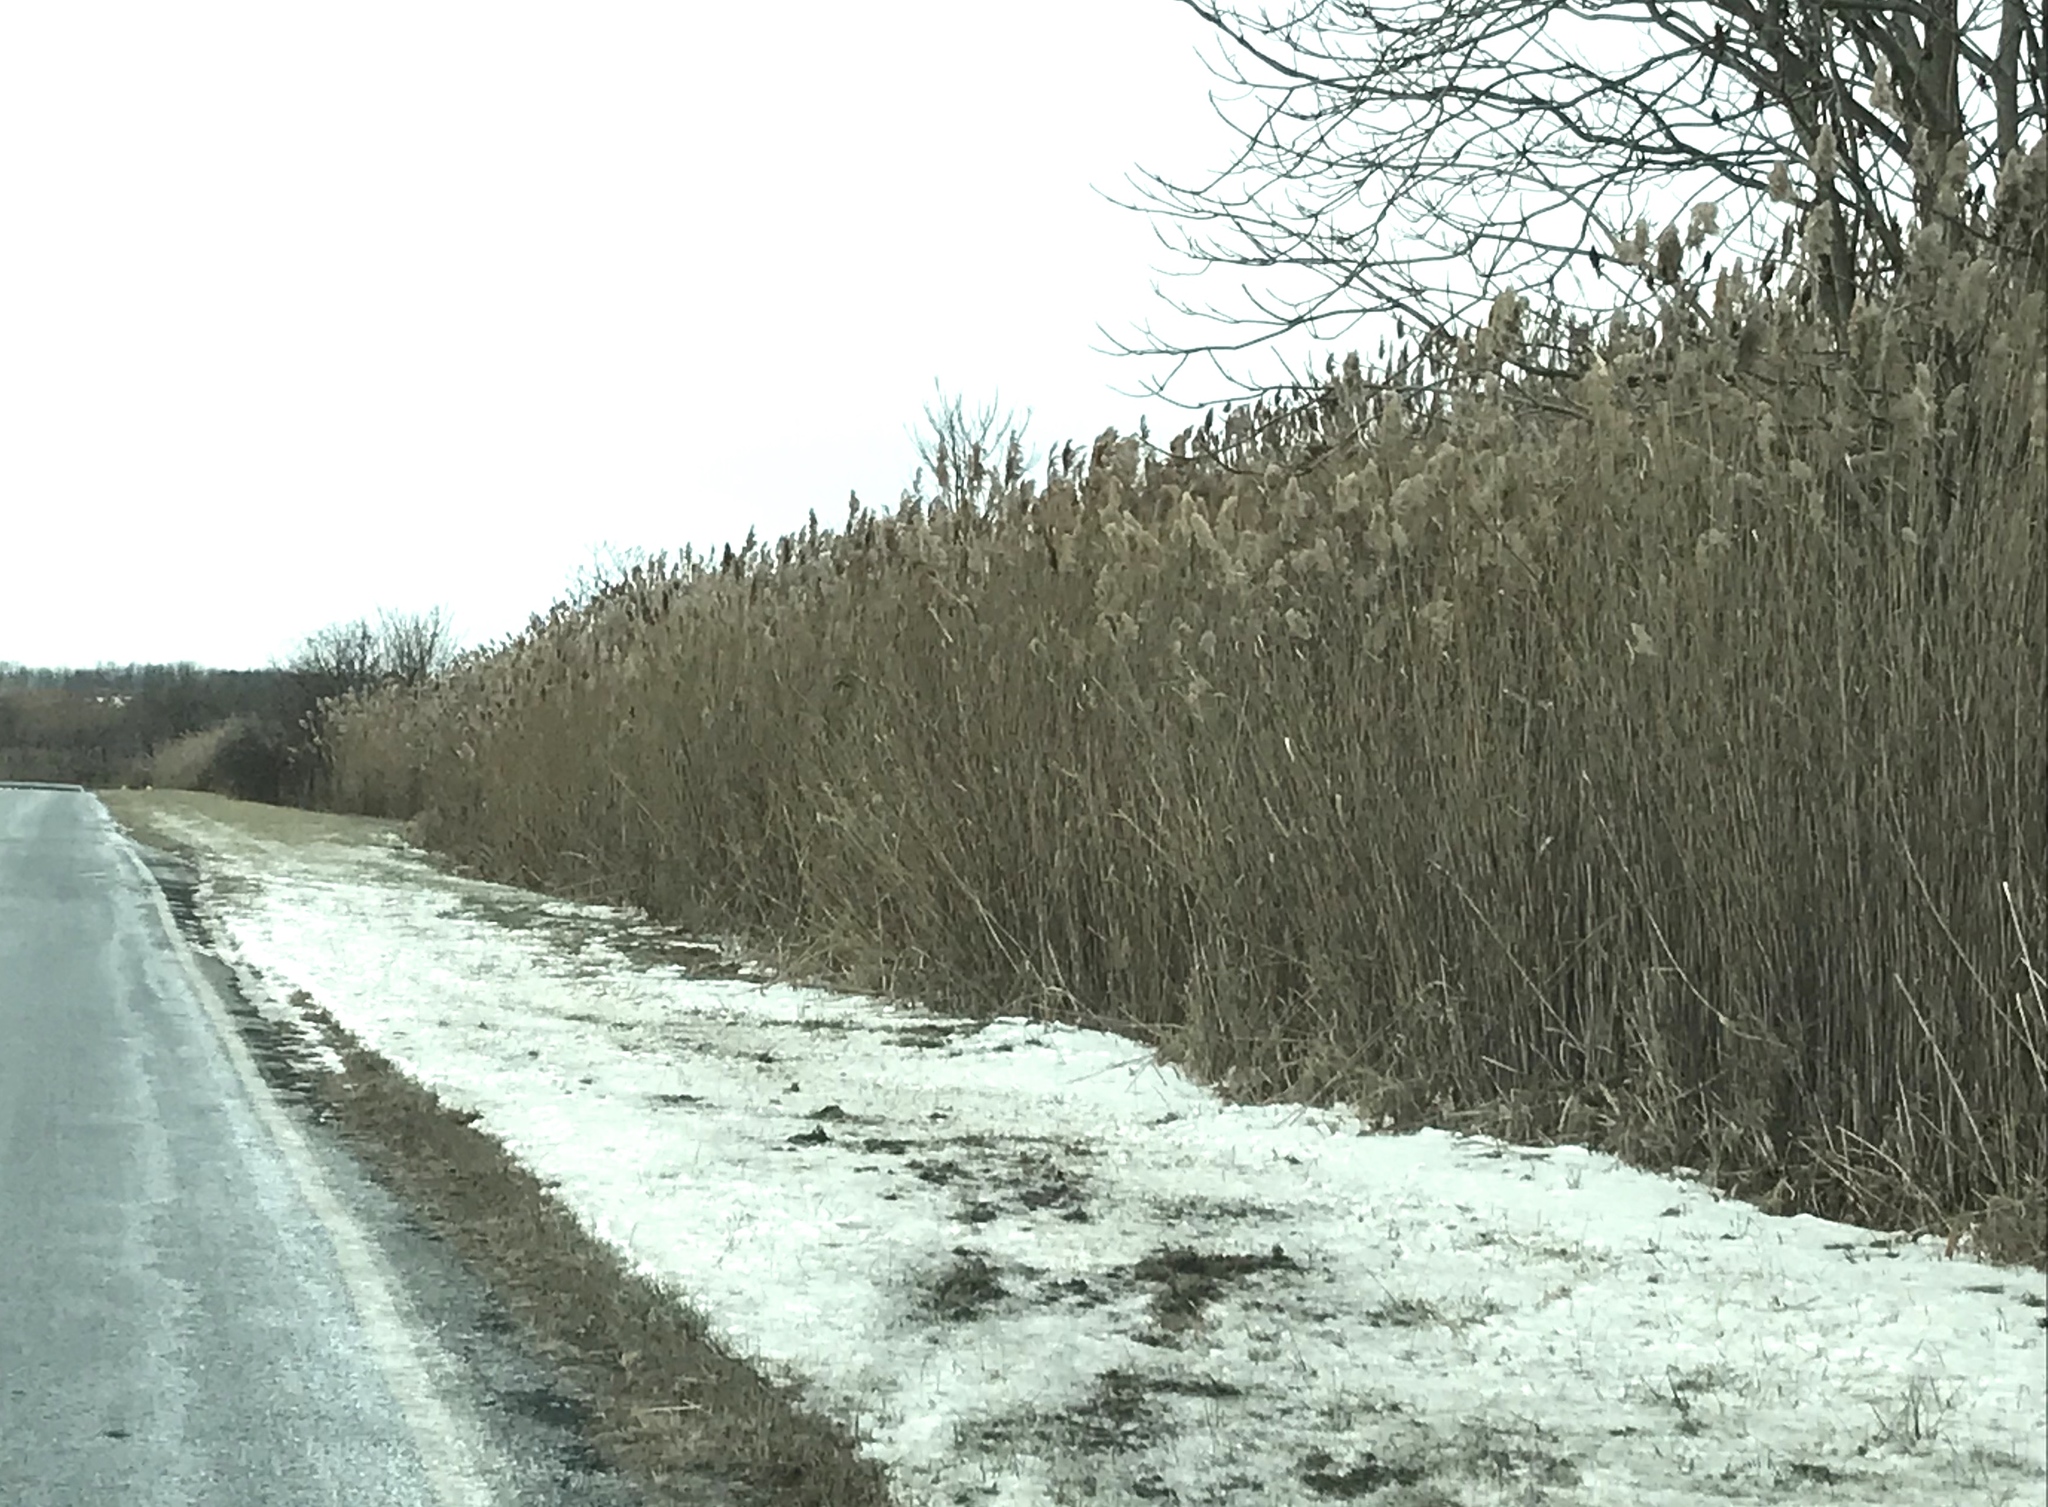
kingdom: Plantae
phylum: Tracheophyta
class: Liliopsida
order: Poales
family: Poaceae
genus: Phragmites
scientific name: Phragmites australis
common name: Common reed
